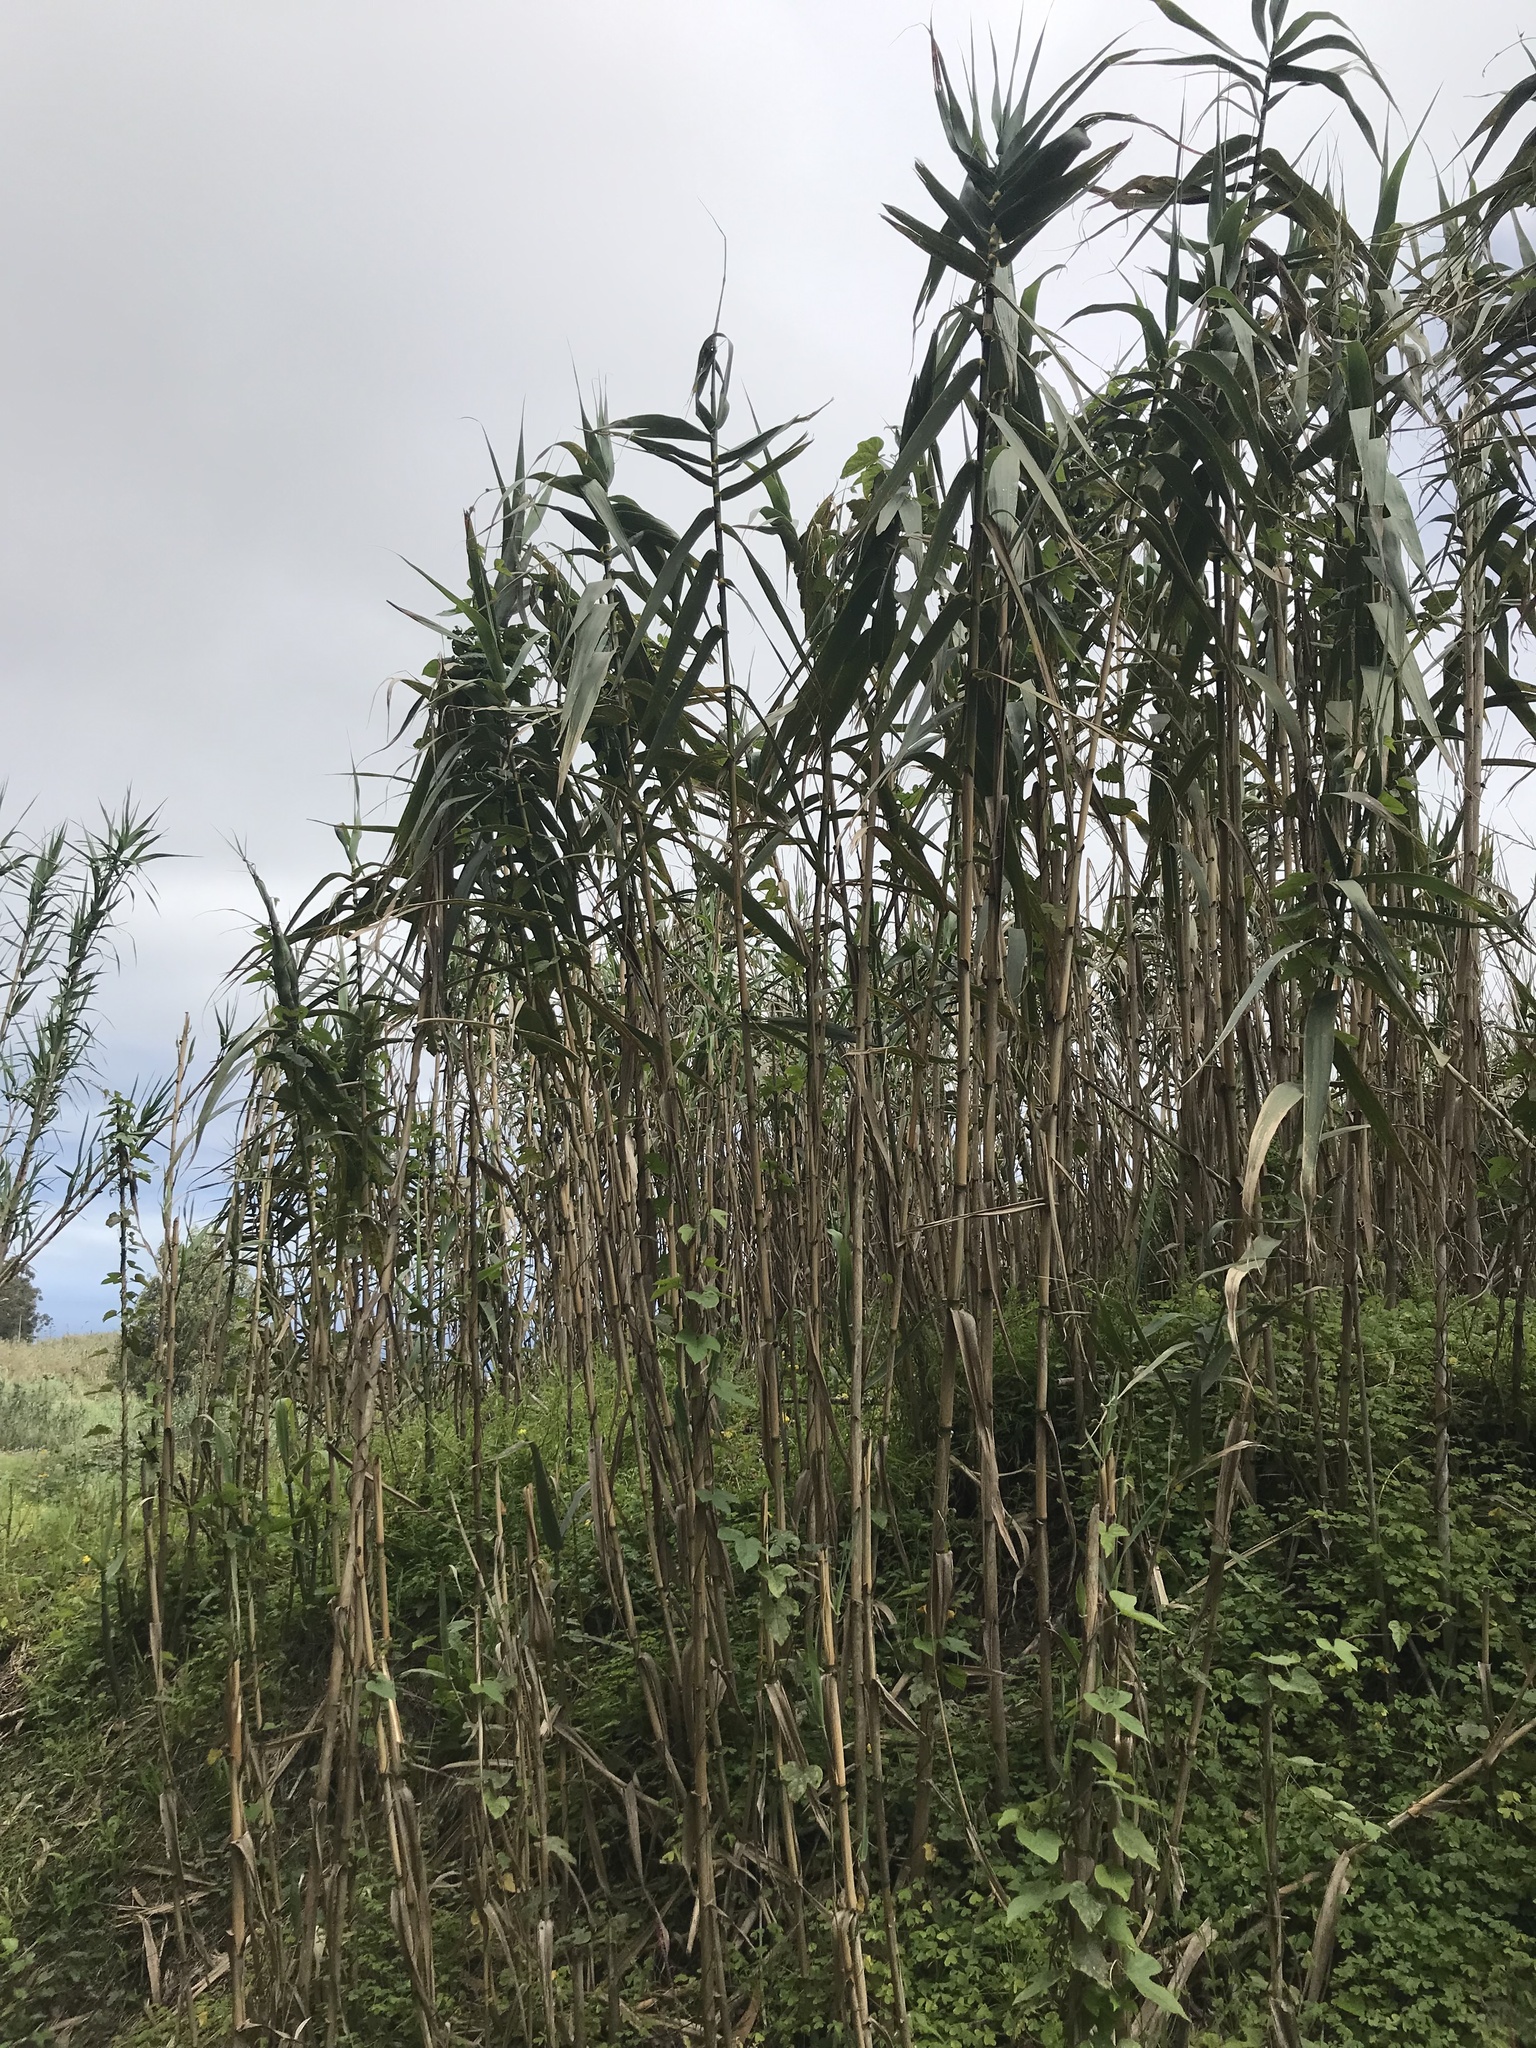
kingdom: Plantae
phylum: Tracheophyta
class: Liliopsida
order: Poales
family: Poaceae
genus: Arundo
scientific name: Arundo donax
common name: Giant reed
